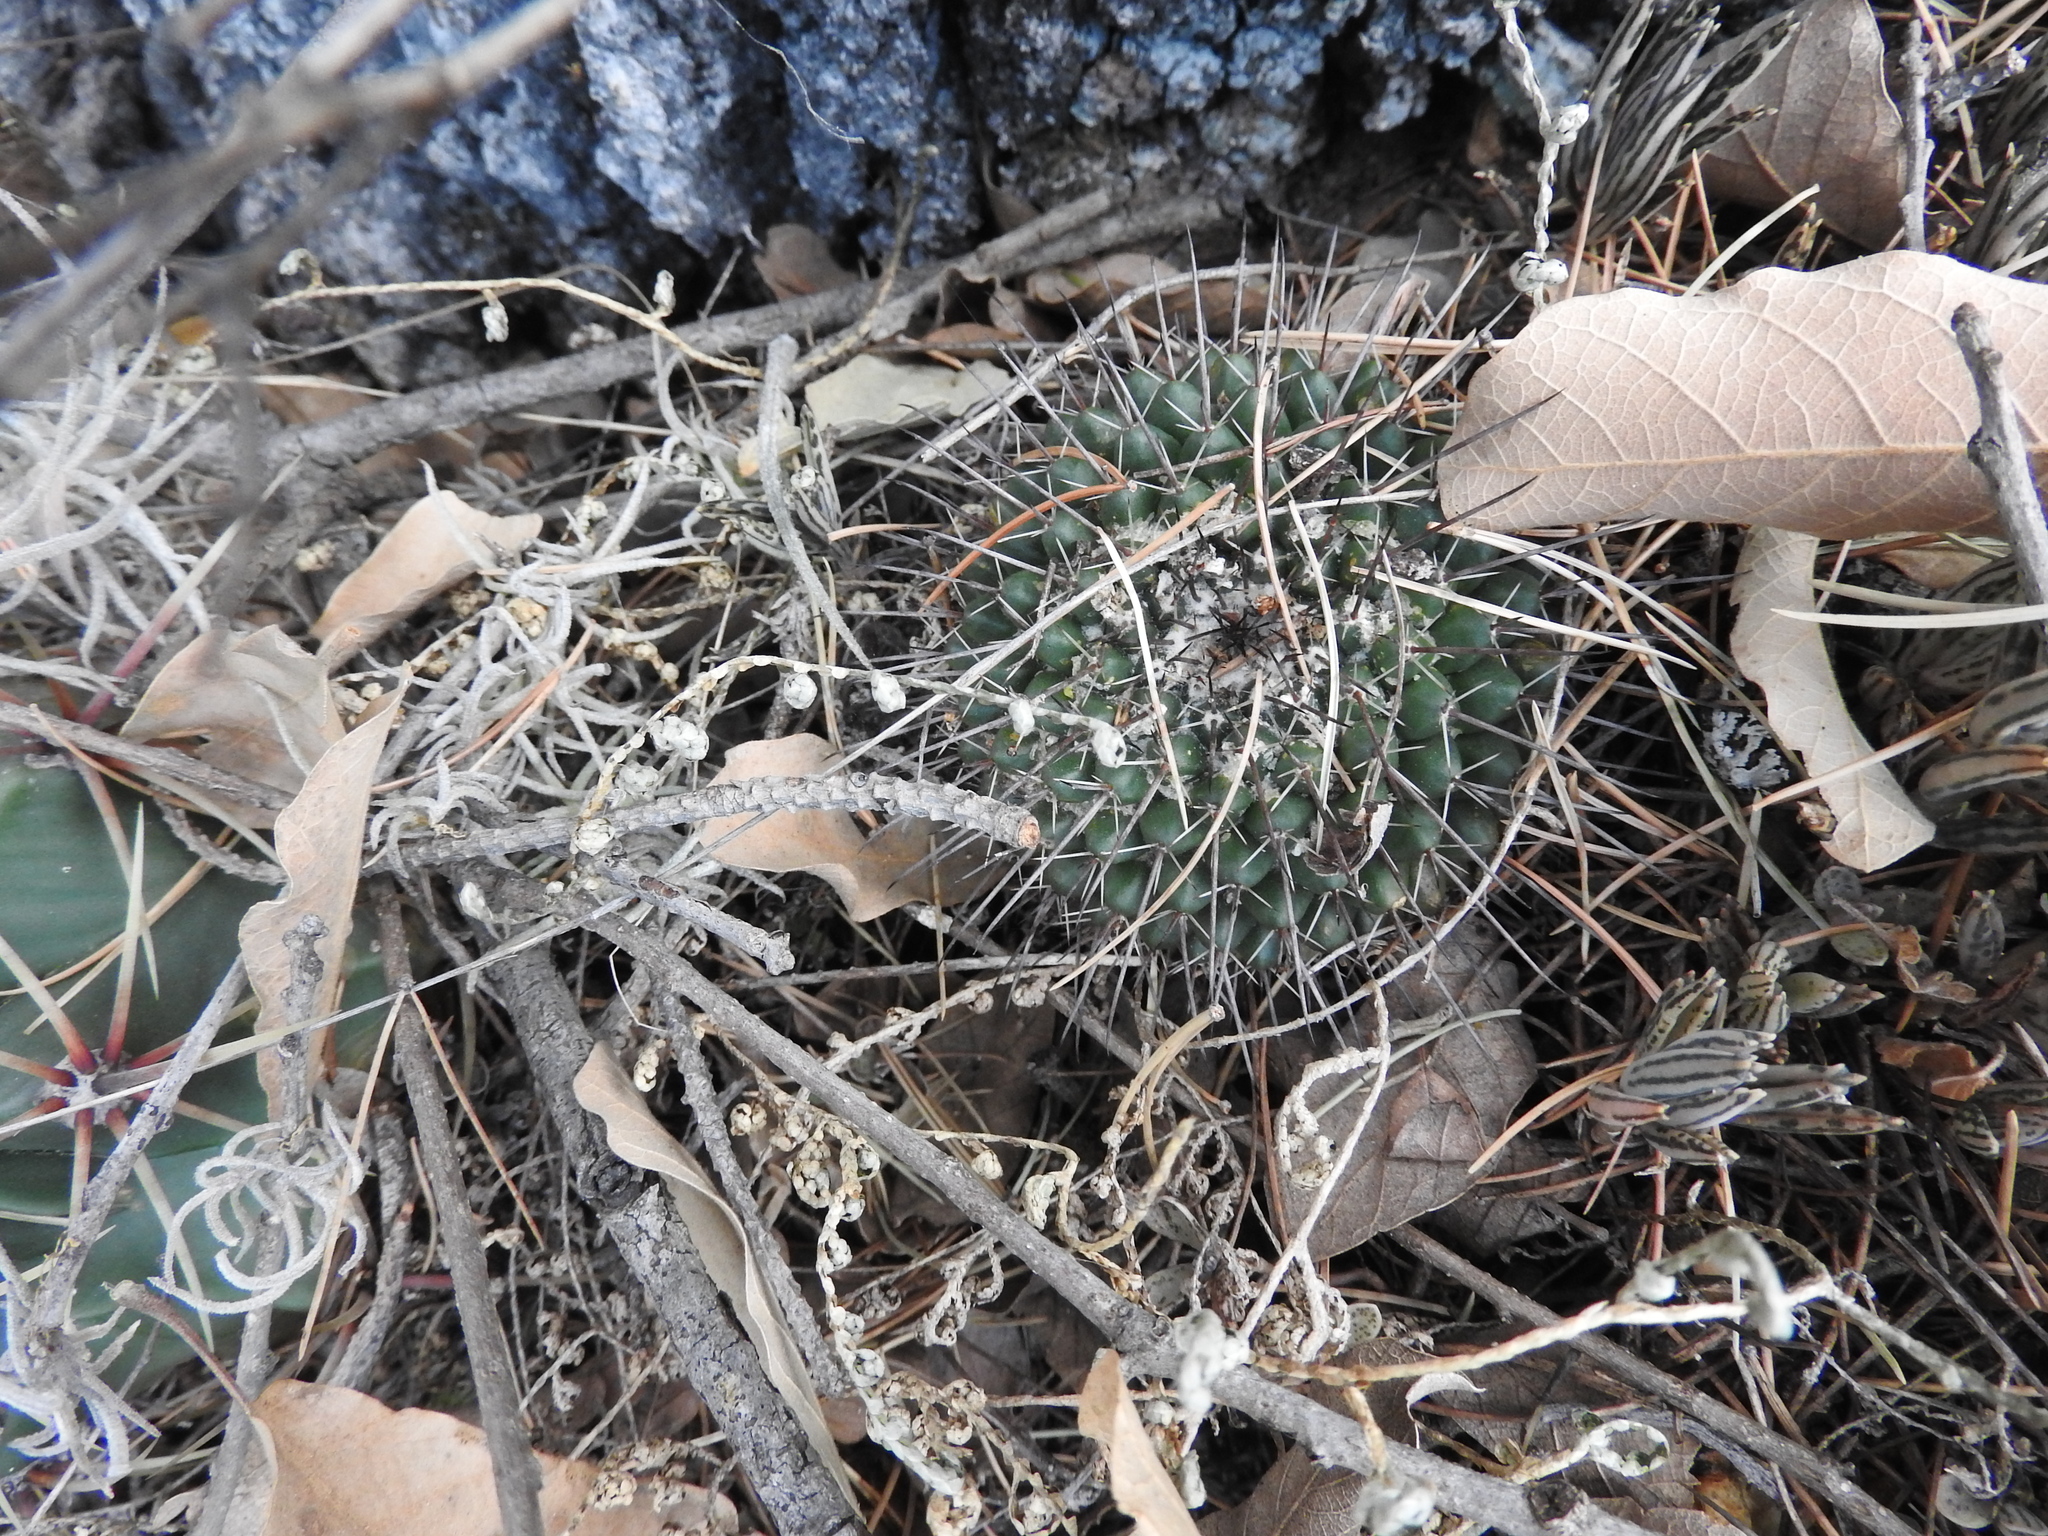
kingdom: Plantae
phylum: Tracheophyta
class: Magnoliopsida
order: Caryophyllales
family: Cactaceae
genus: Mammillaria
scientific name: Mammillaria gigantea
